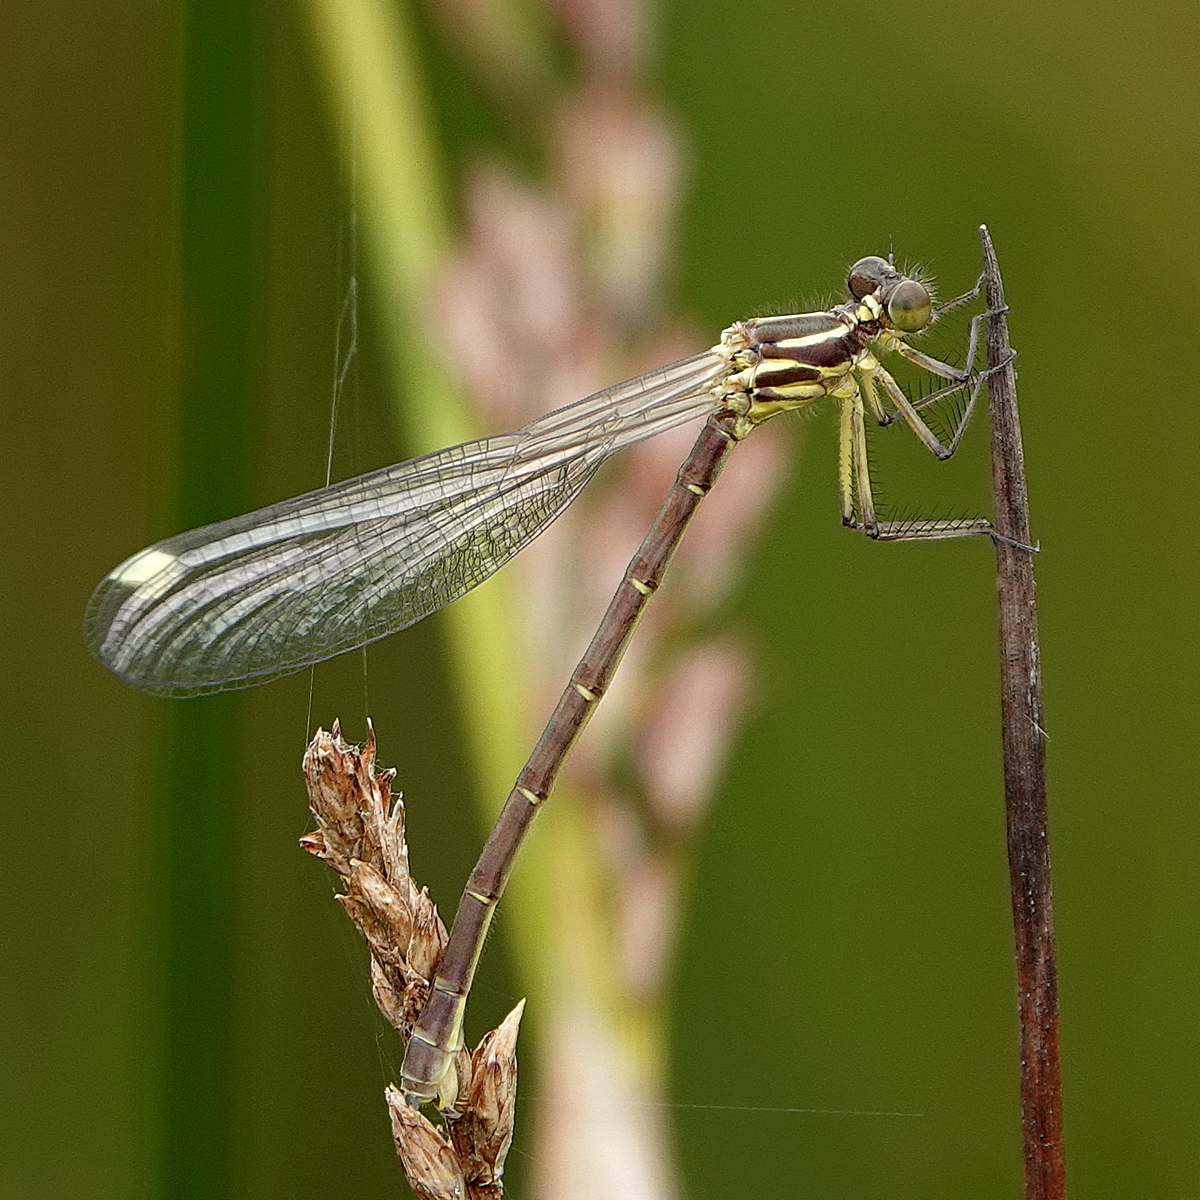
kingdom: Animalia
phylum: Arthropoda
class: Insecta
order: Odonata
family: Argiolestidae
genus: Griseargiolestes
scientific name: Griseargiolestes eboracus
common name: Grey-chested flatwing
